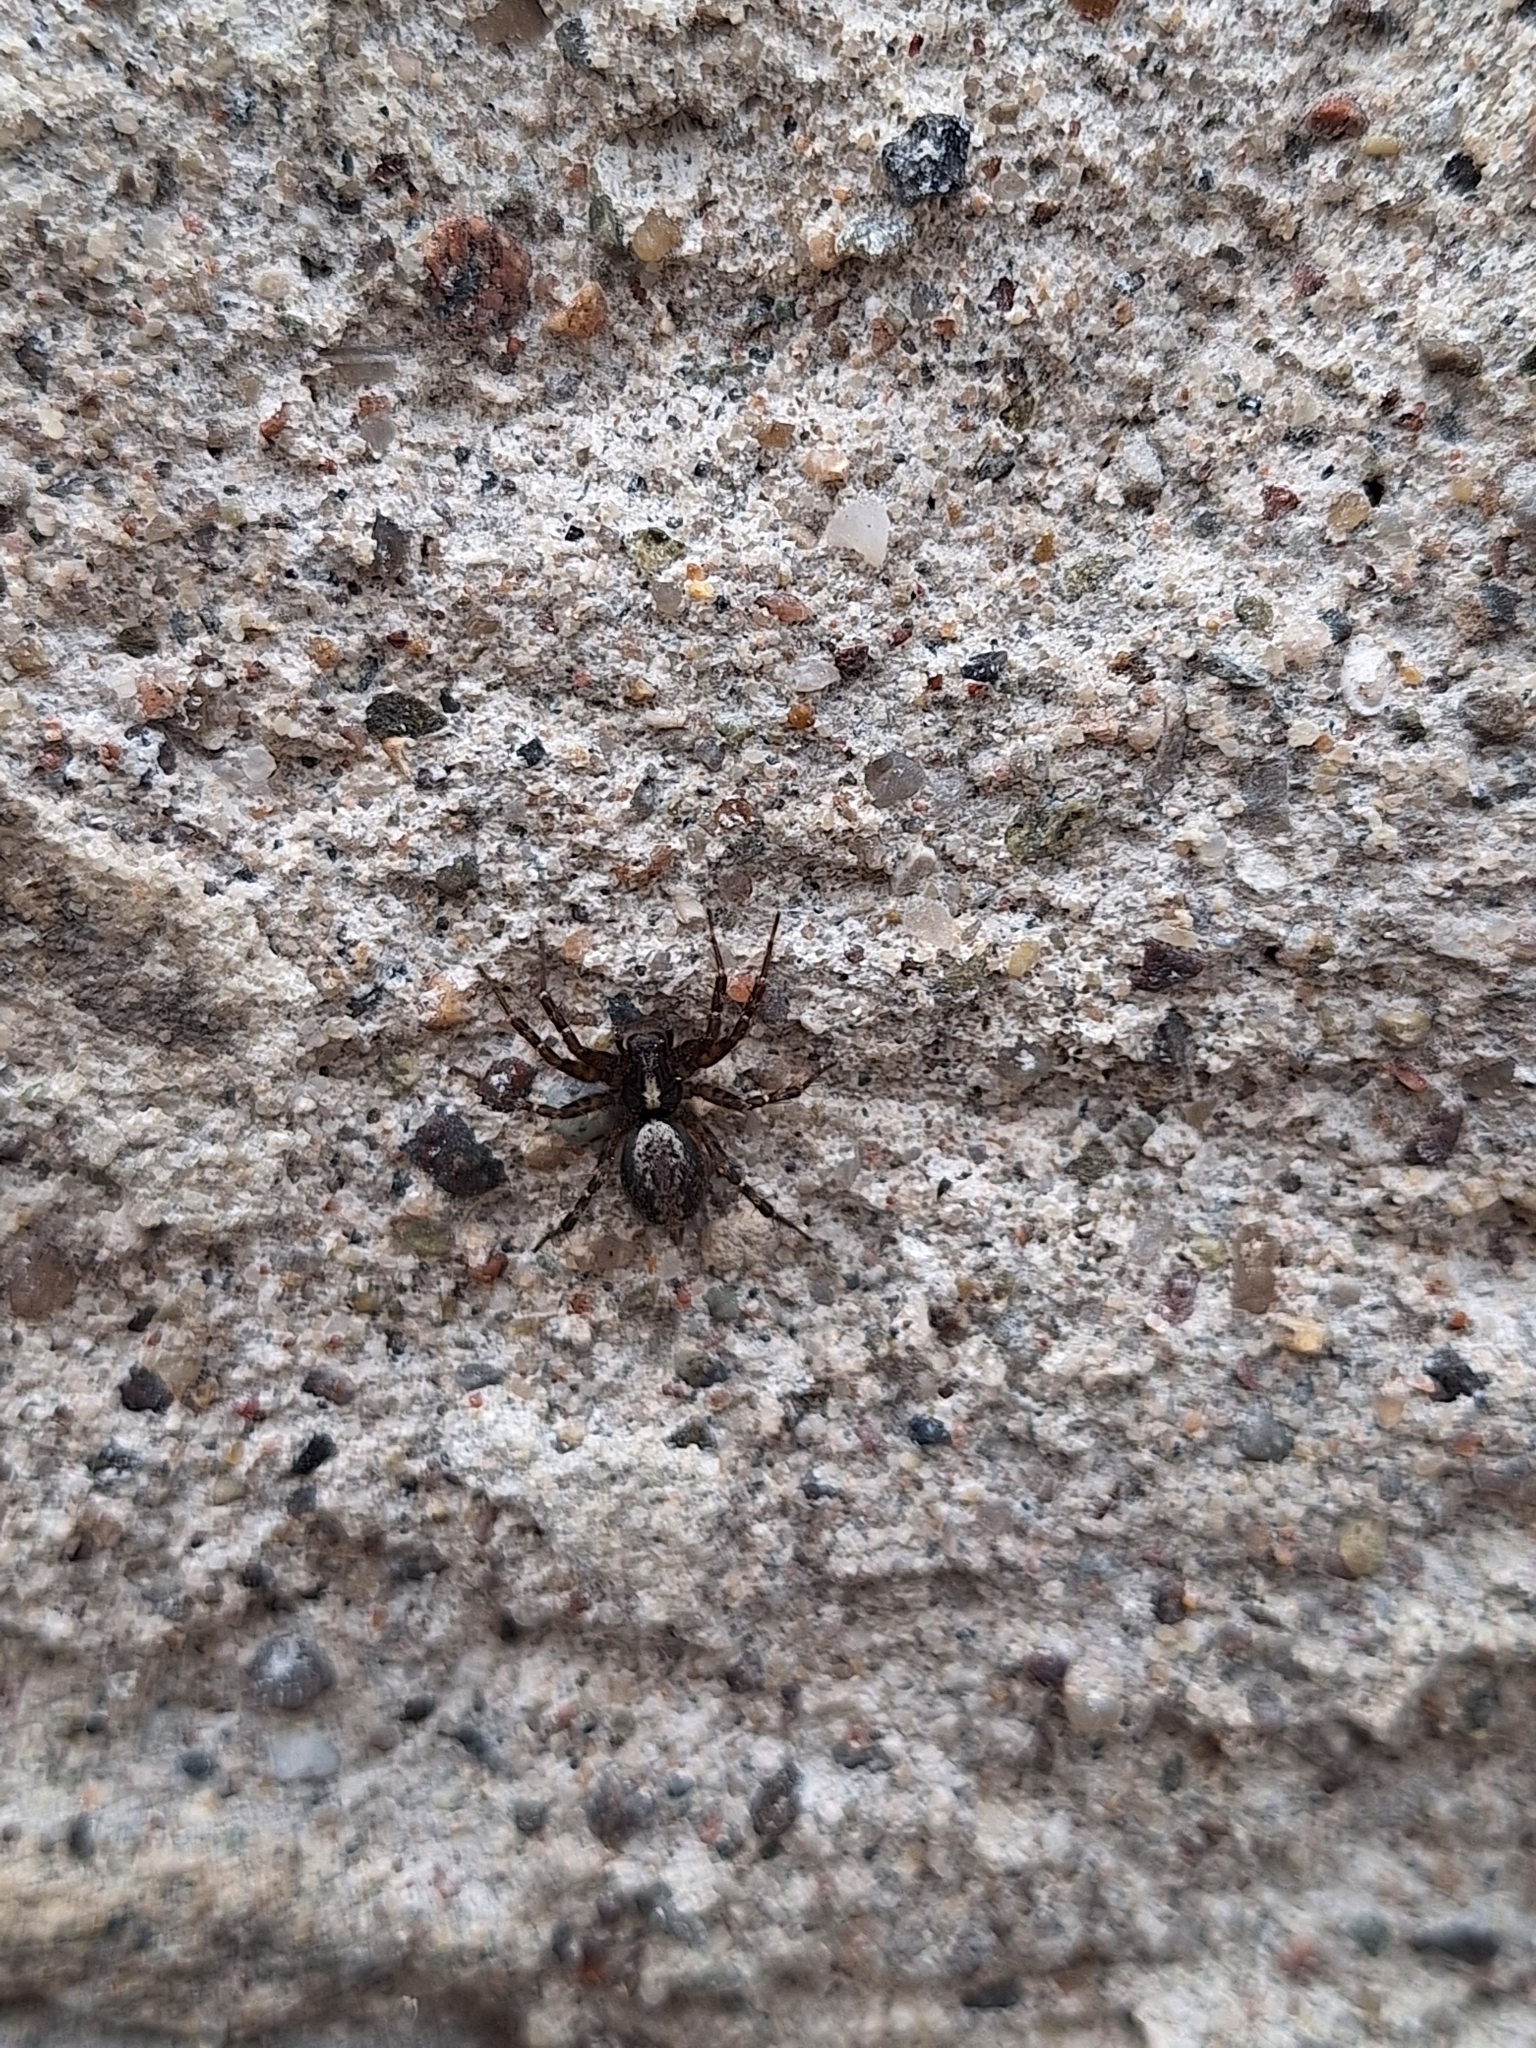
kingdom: Animalia
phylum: Arthropoda
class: Arachnida
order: Araneae
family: Agelenidae
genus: Textrix
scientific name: Textrix denticulata
